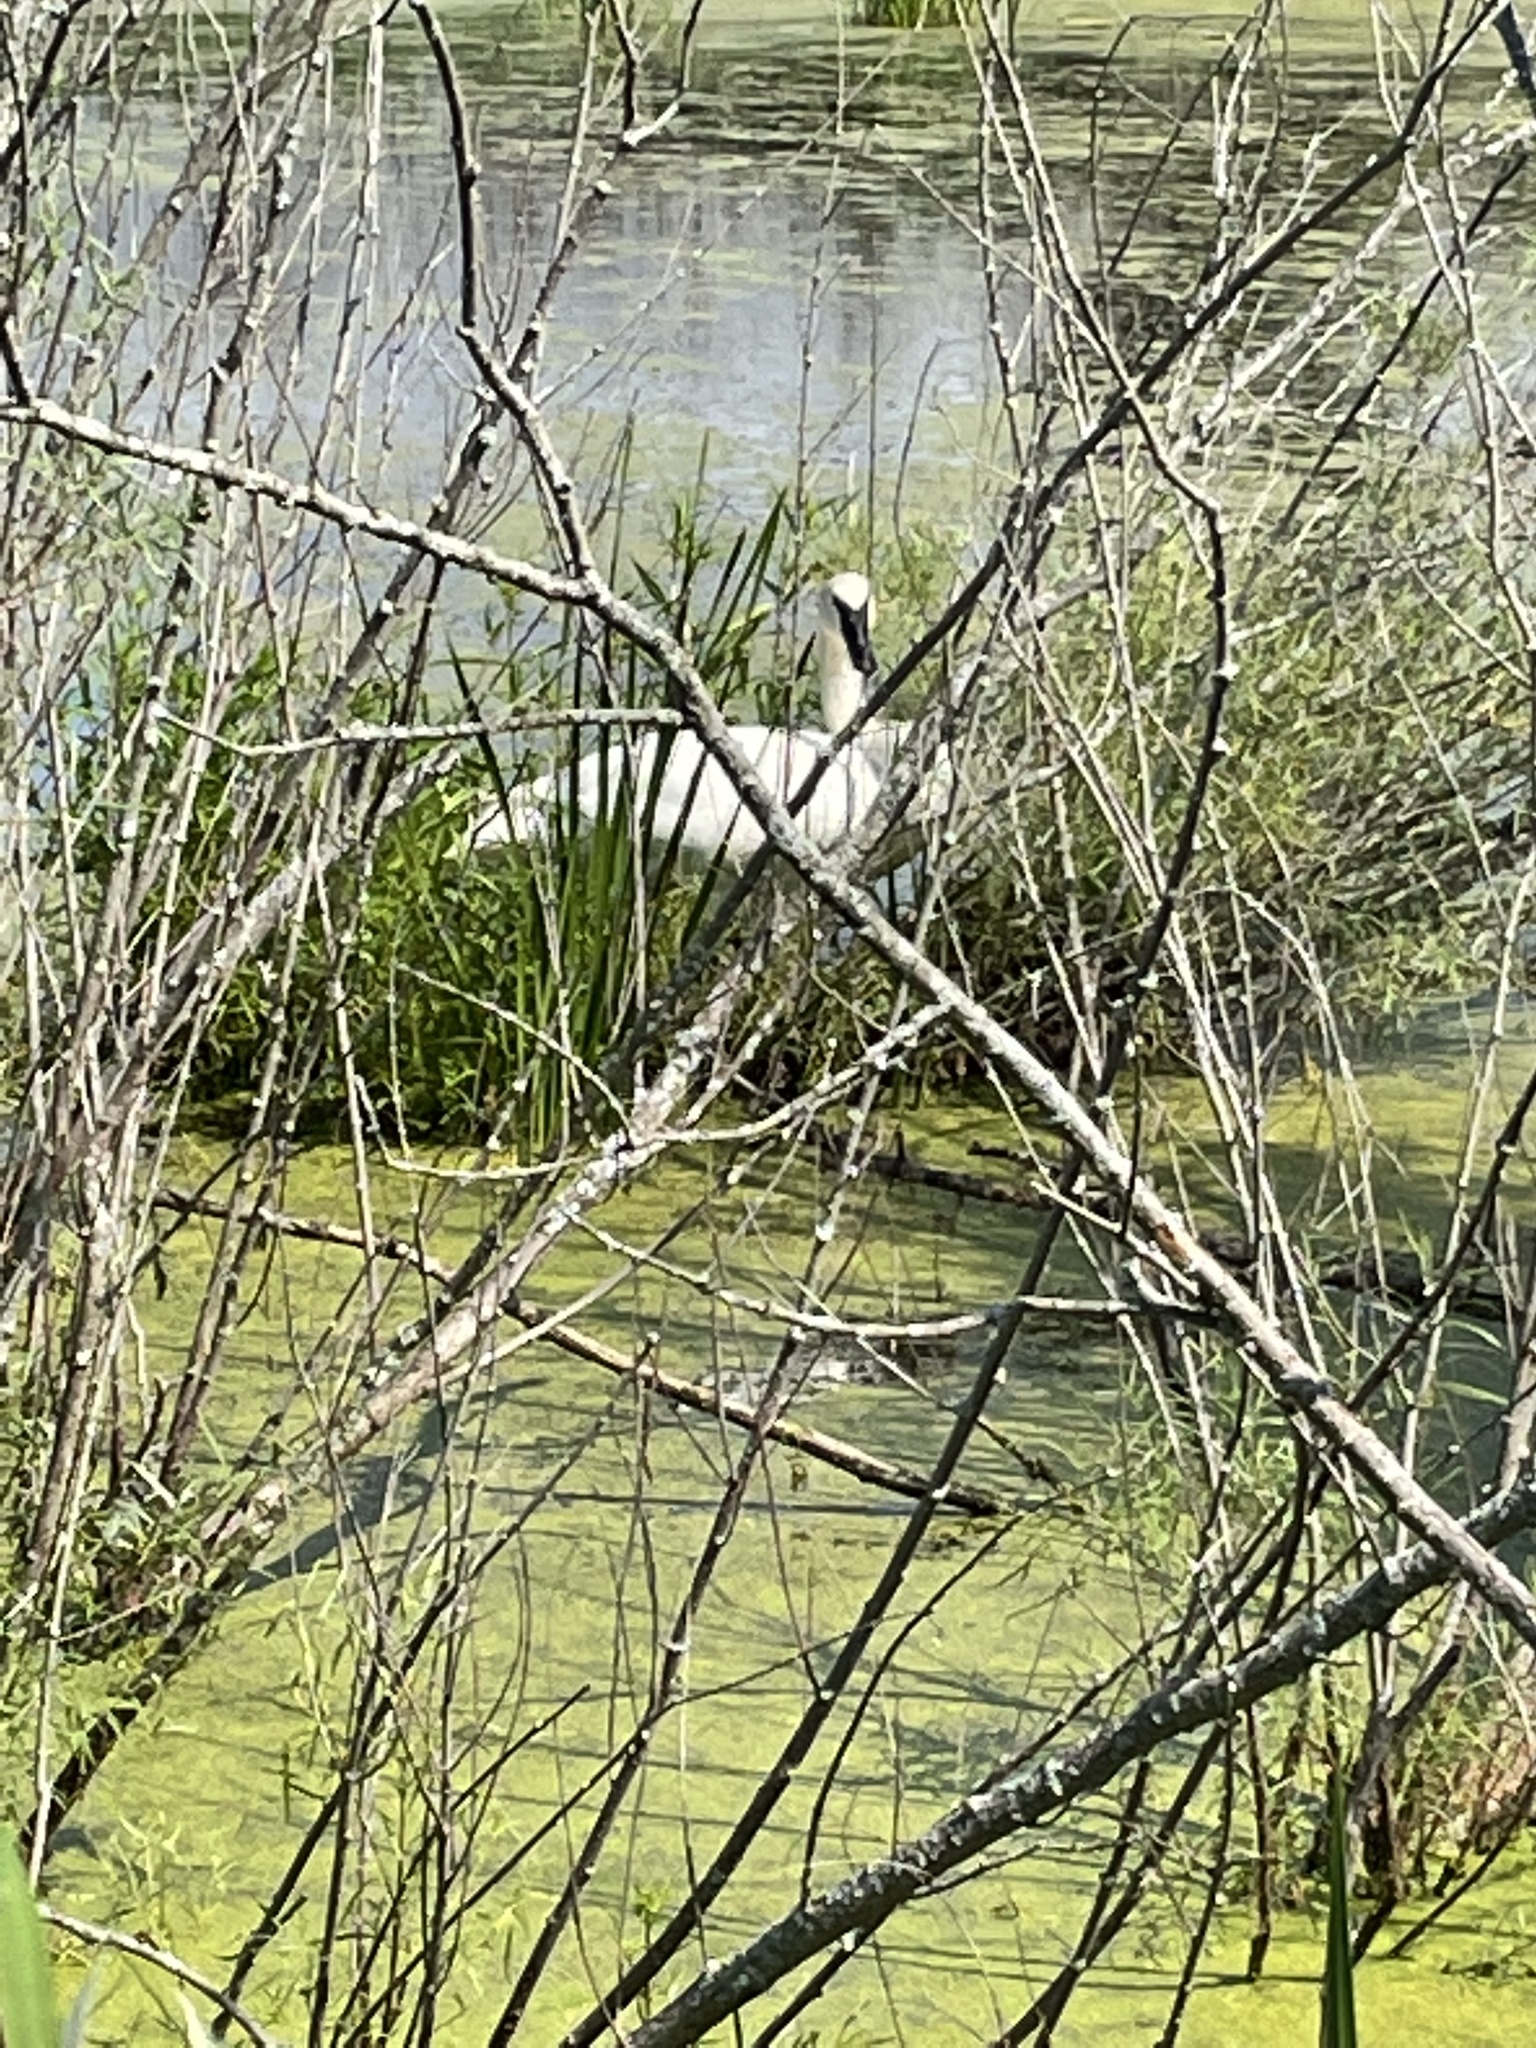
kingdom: Animalia
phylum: Chordata
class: Aves
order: Anseriformes
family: Anatidae
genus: Cygnus
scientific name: Cygnus buccinator
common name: Trumpeter swan
